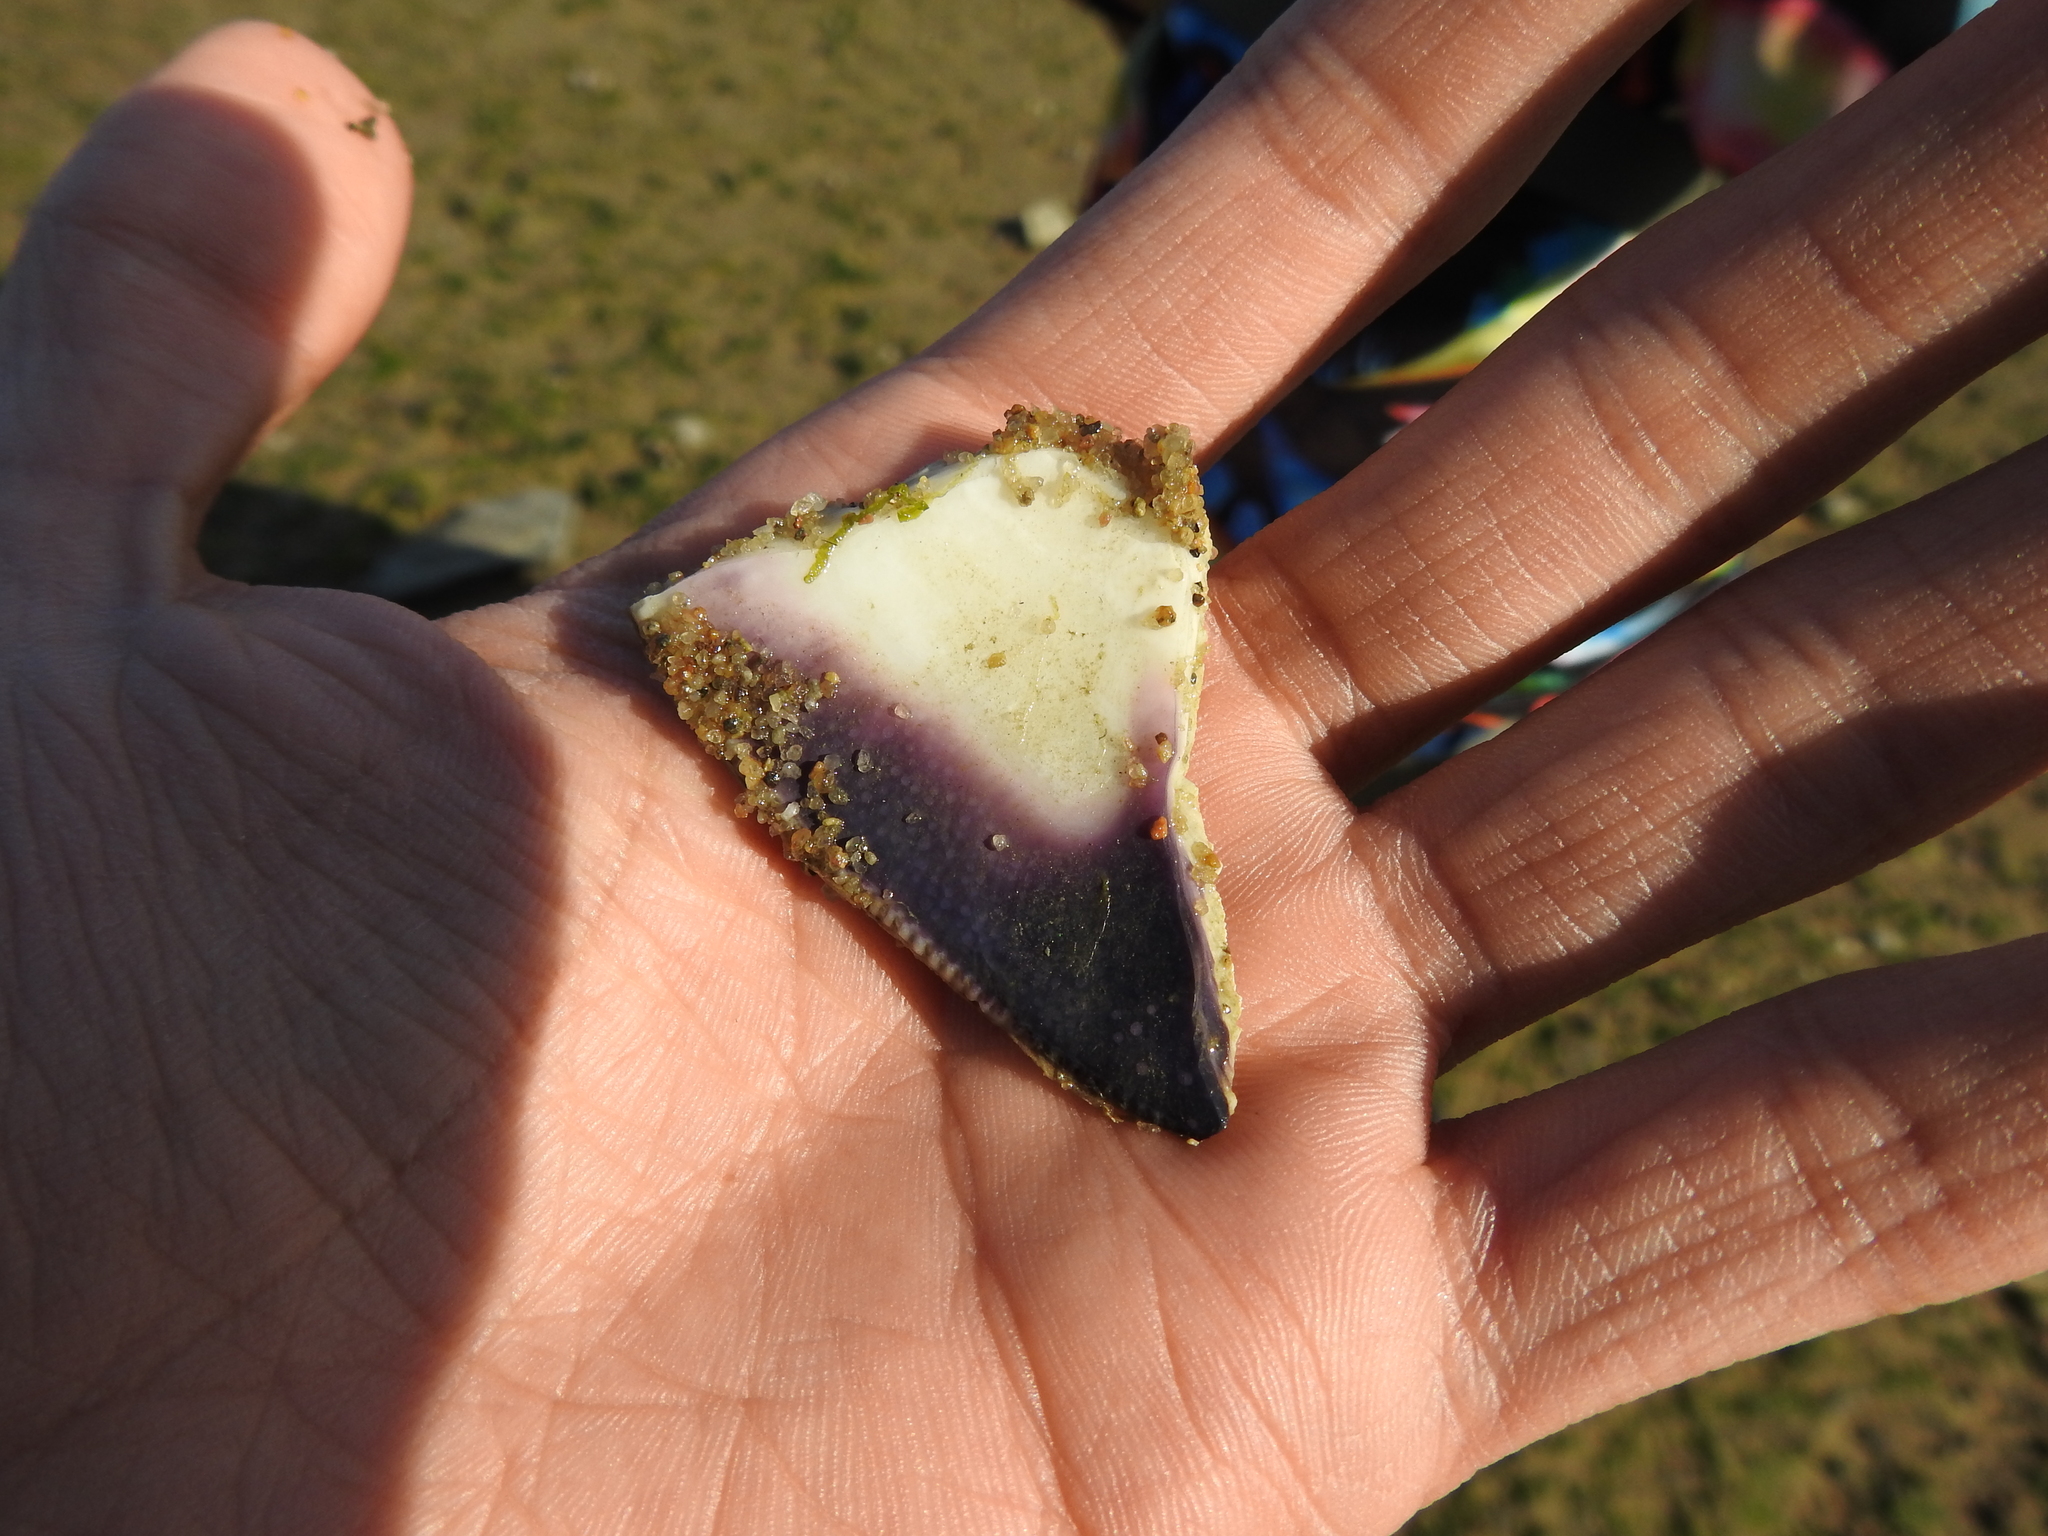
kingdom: Animalia
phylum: Mollusca
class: Bivalvia
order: Venerida
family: Veneridae
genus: Mercenaria
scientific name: Mercenaria mercenaria
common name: American hard-shelled clam
